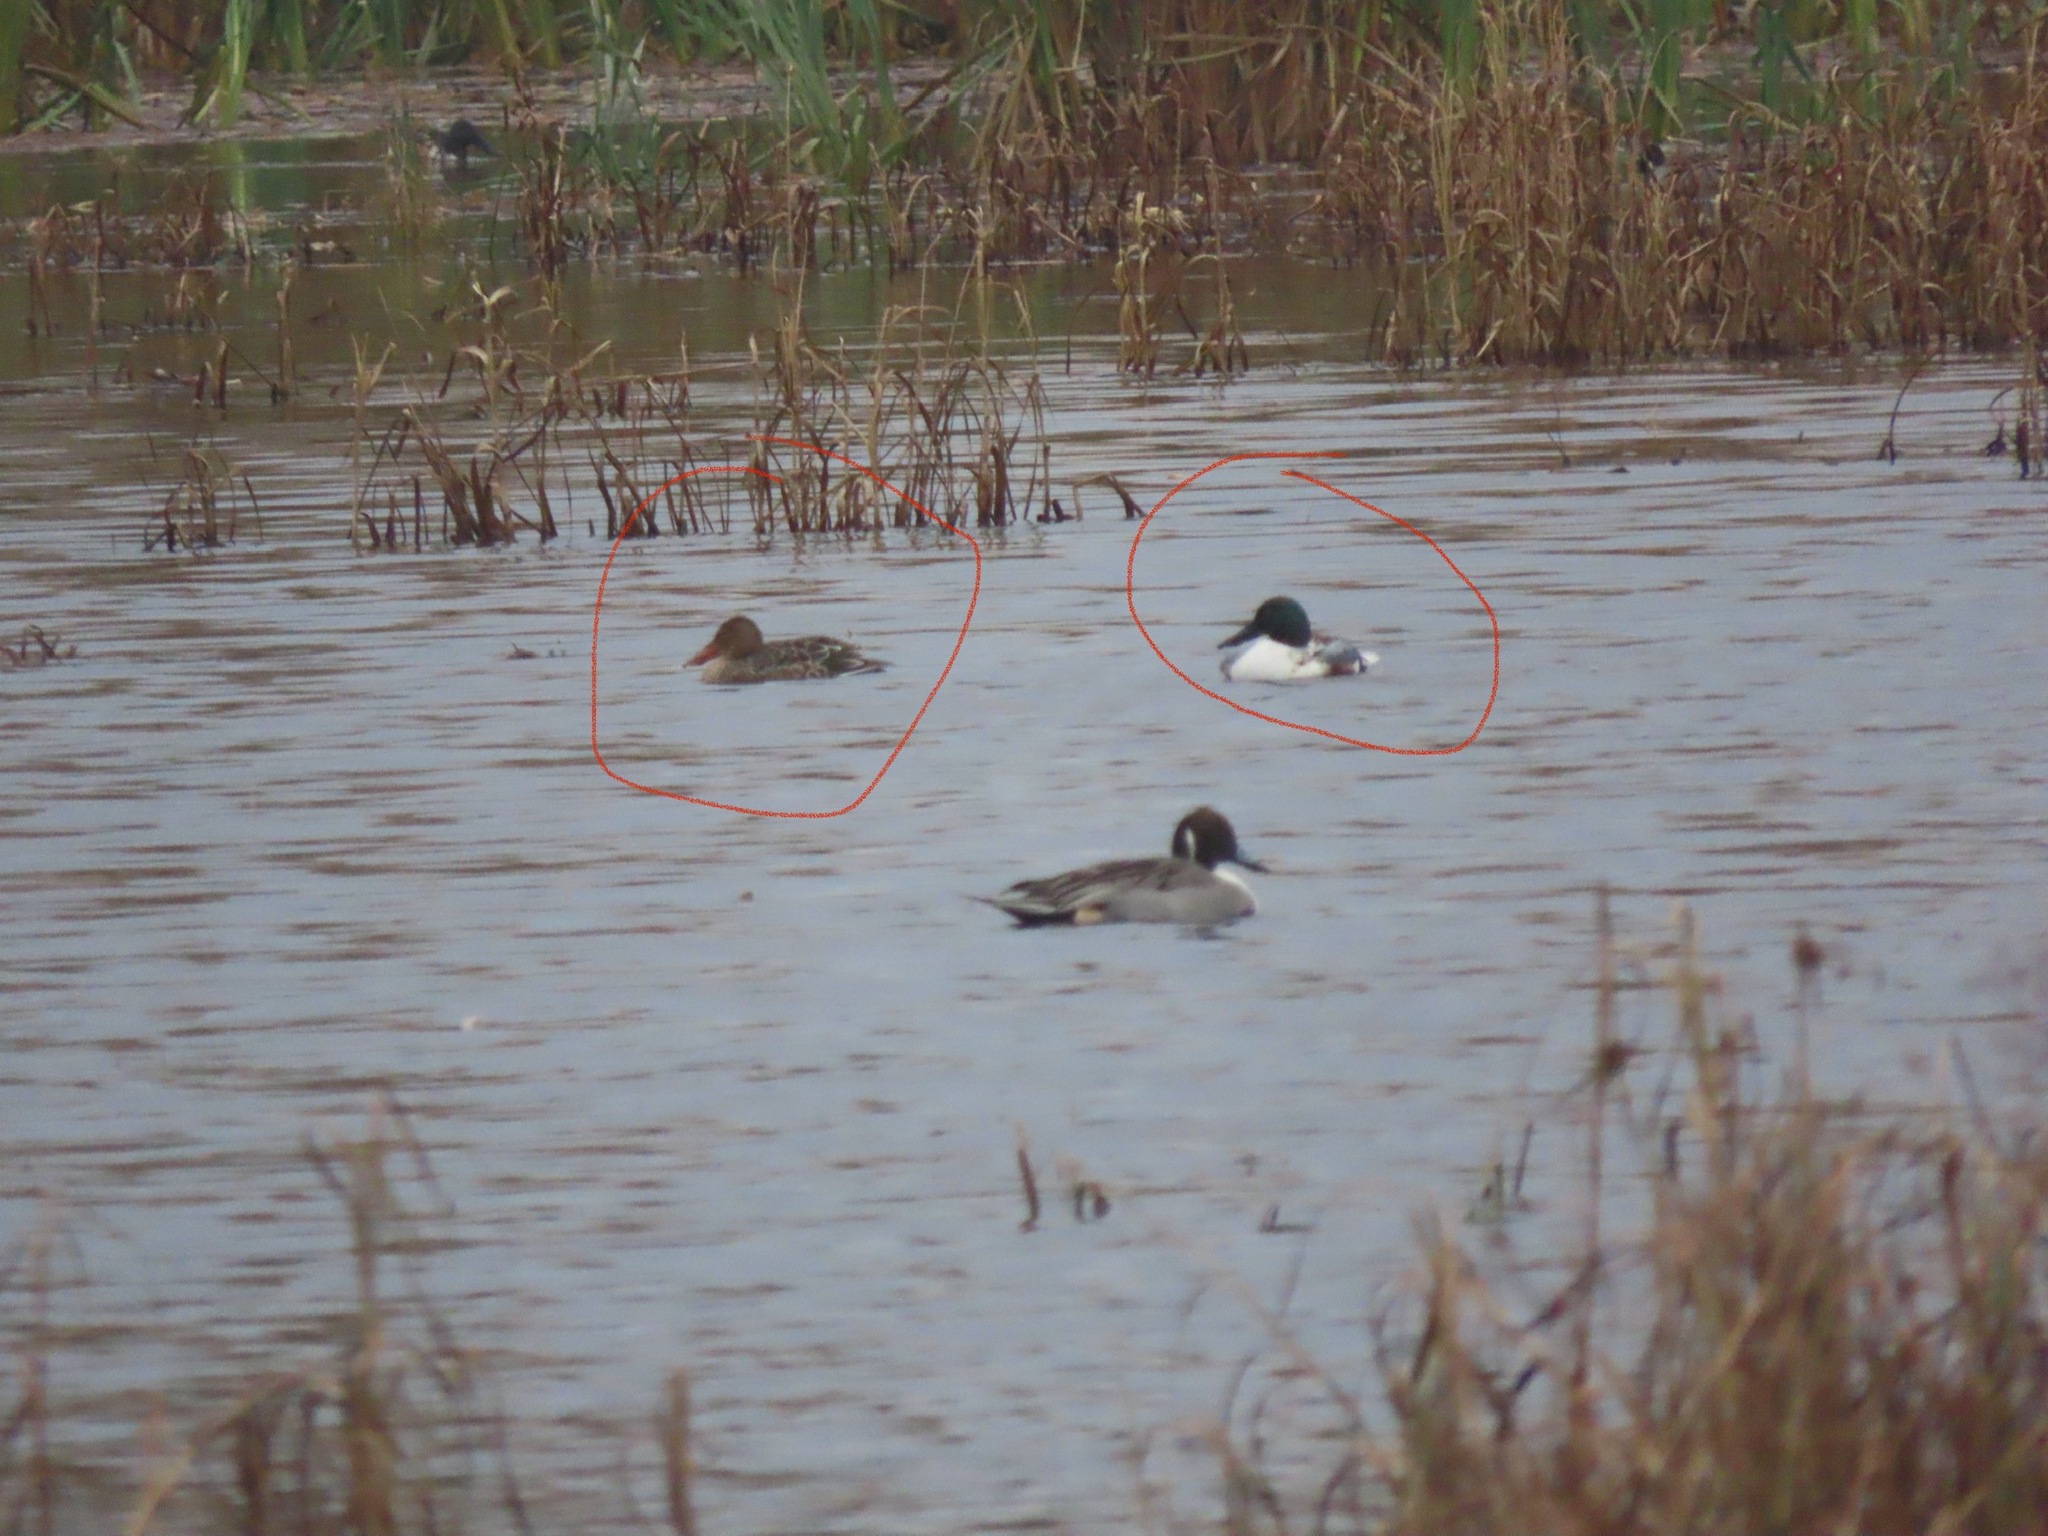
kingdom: Animalia
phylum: Chordata
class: Aves
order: Anseriformes
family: Anatidae
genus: Spatula
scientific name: Spatula clypeata
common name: Northern shoveler
